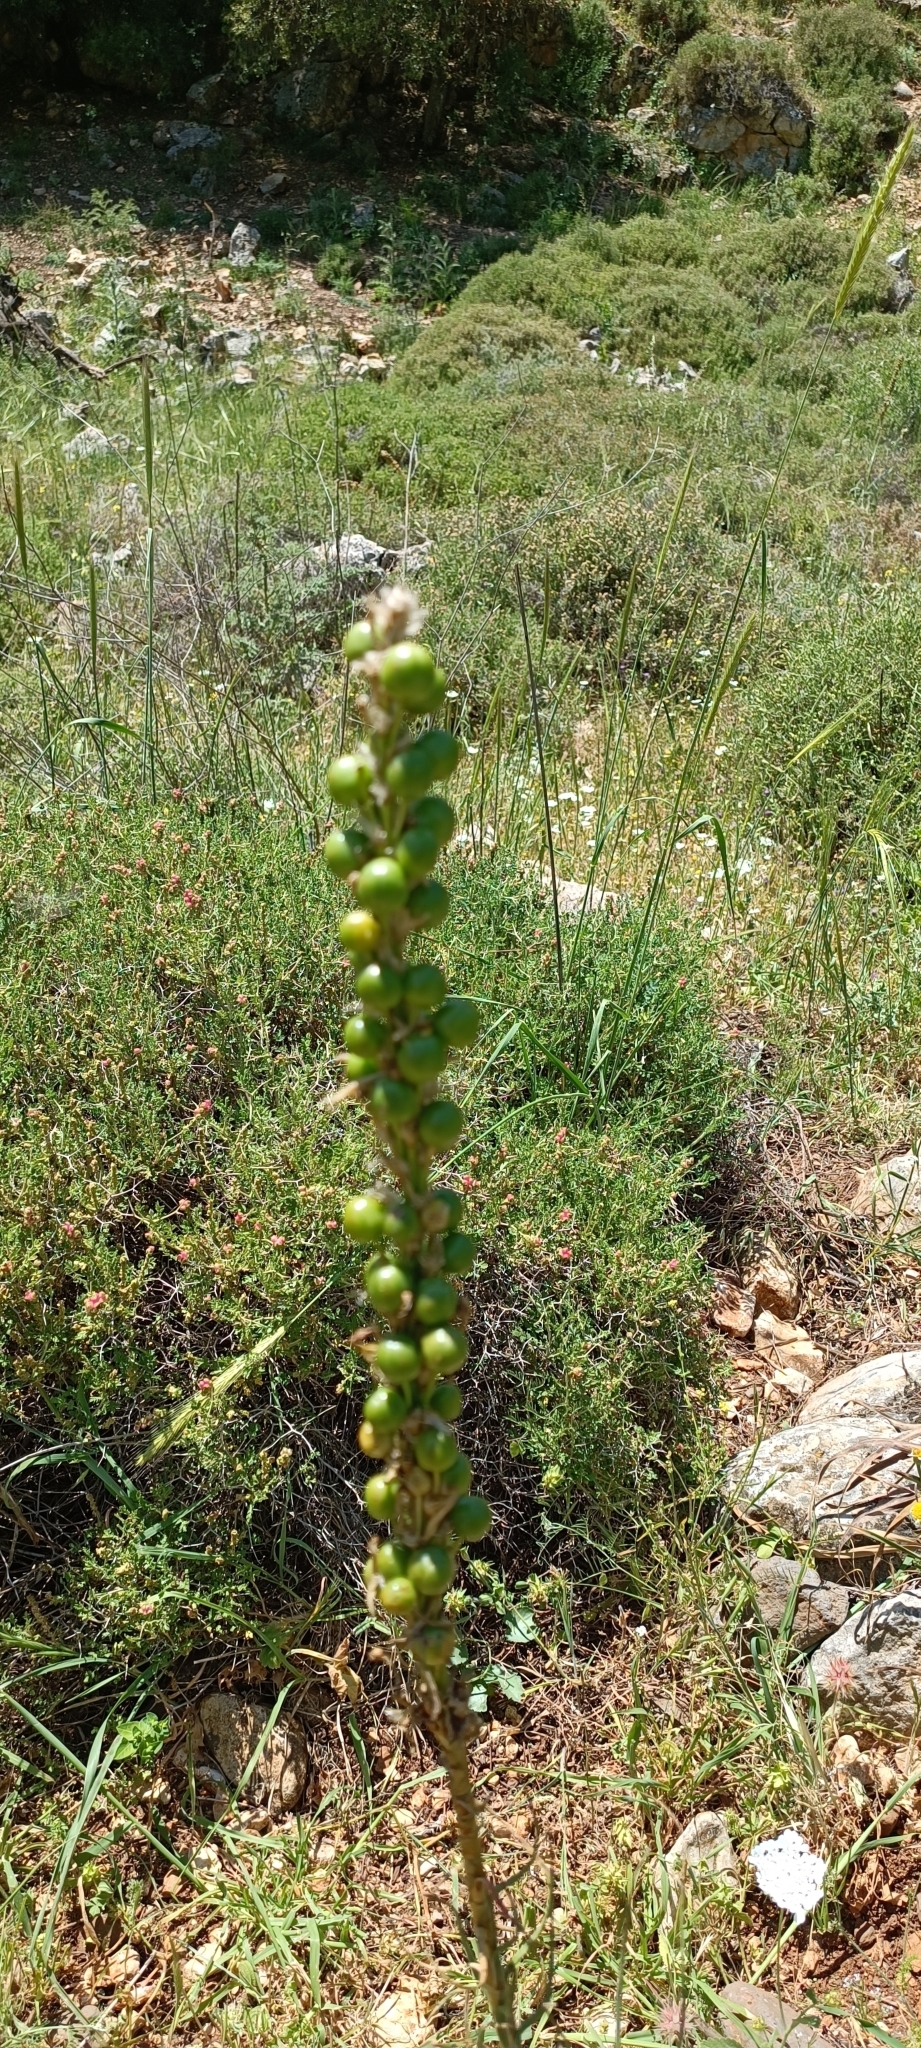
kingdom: Plantae
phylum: Tracheophyta
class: Liliopsida
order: Asparagales
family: Asphodelaceae
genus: Asphodeline
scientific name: Asphodeline lutea
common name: Yellow asphodel
